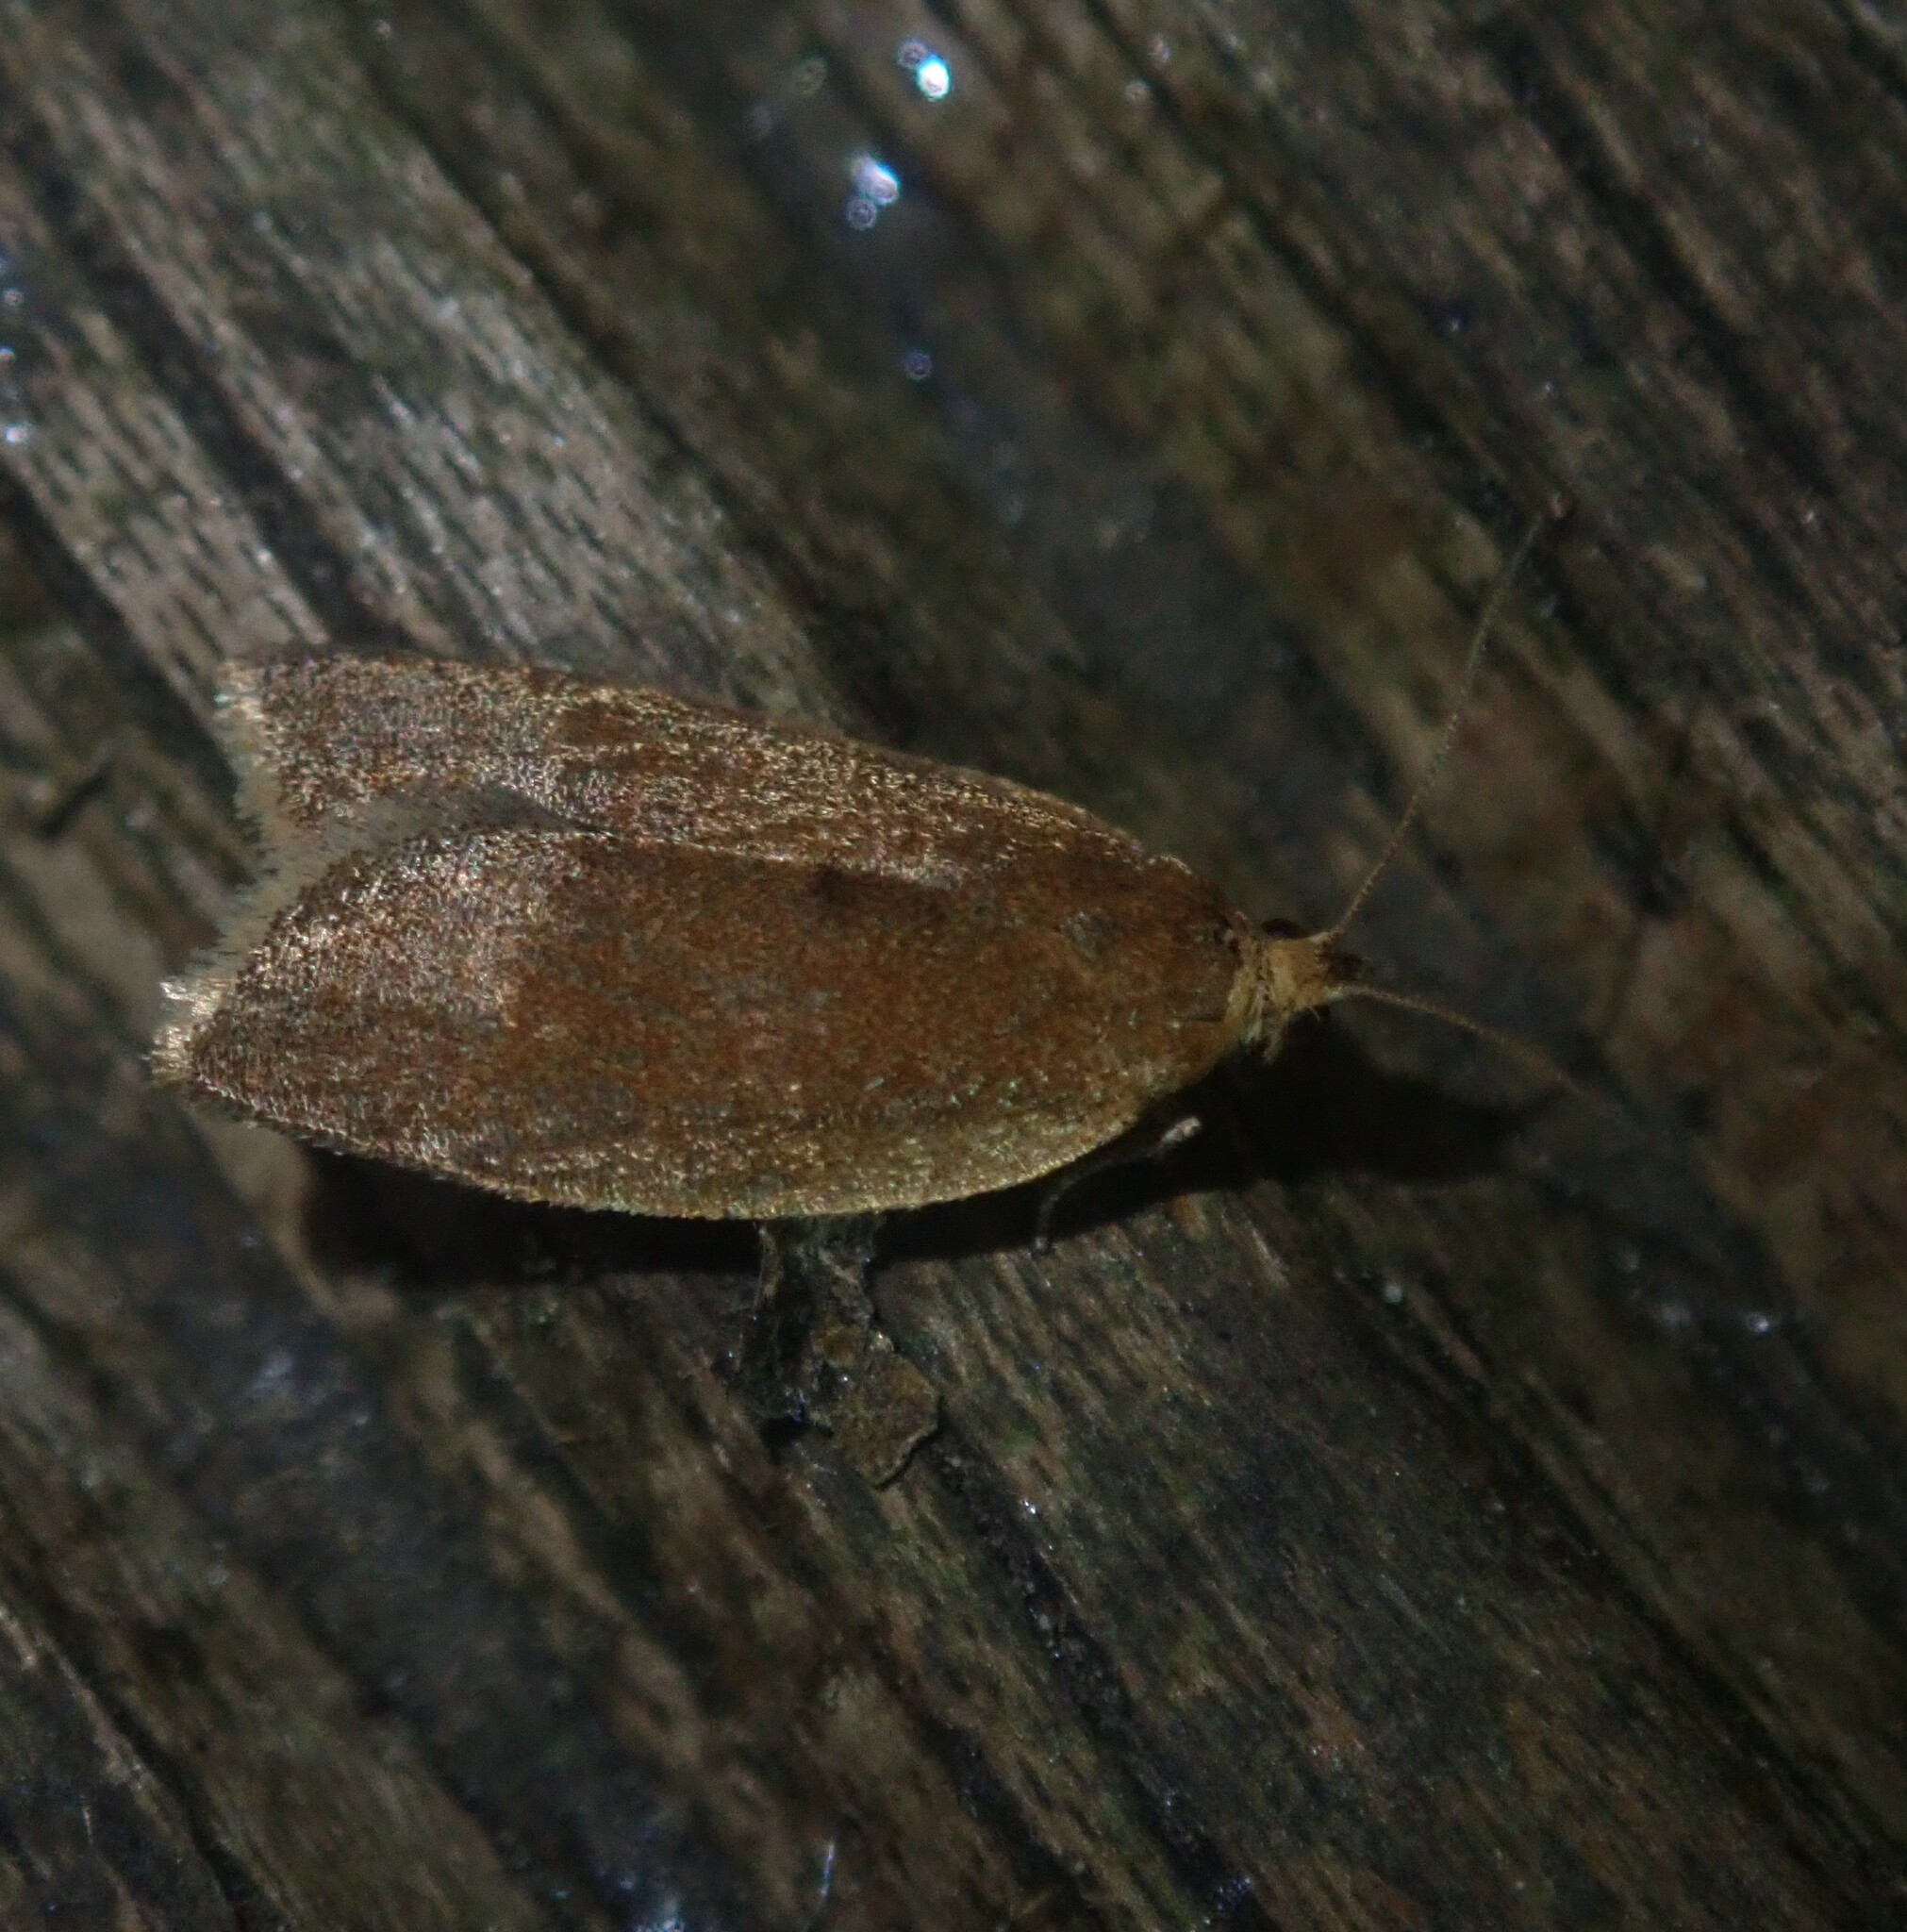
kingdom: Animalia
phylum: Arthropoda
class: Insecta
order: Lepidoptera
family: Tortricidae
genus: Clepsis
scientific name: Clepsis consimilana
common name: Privet tortrix
